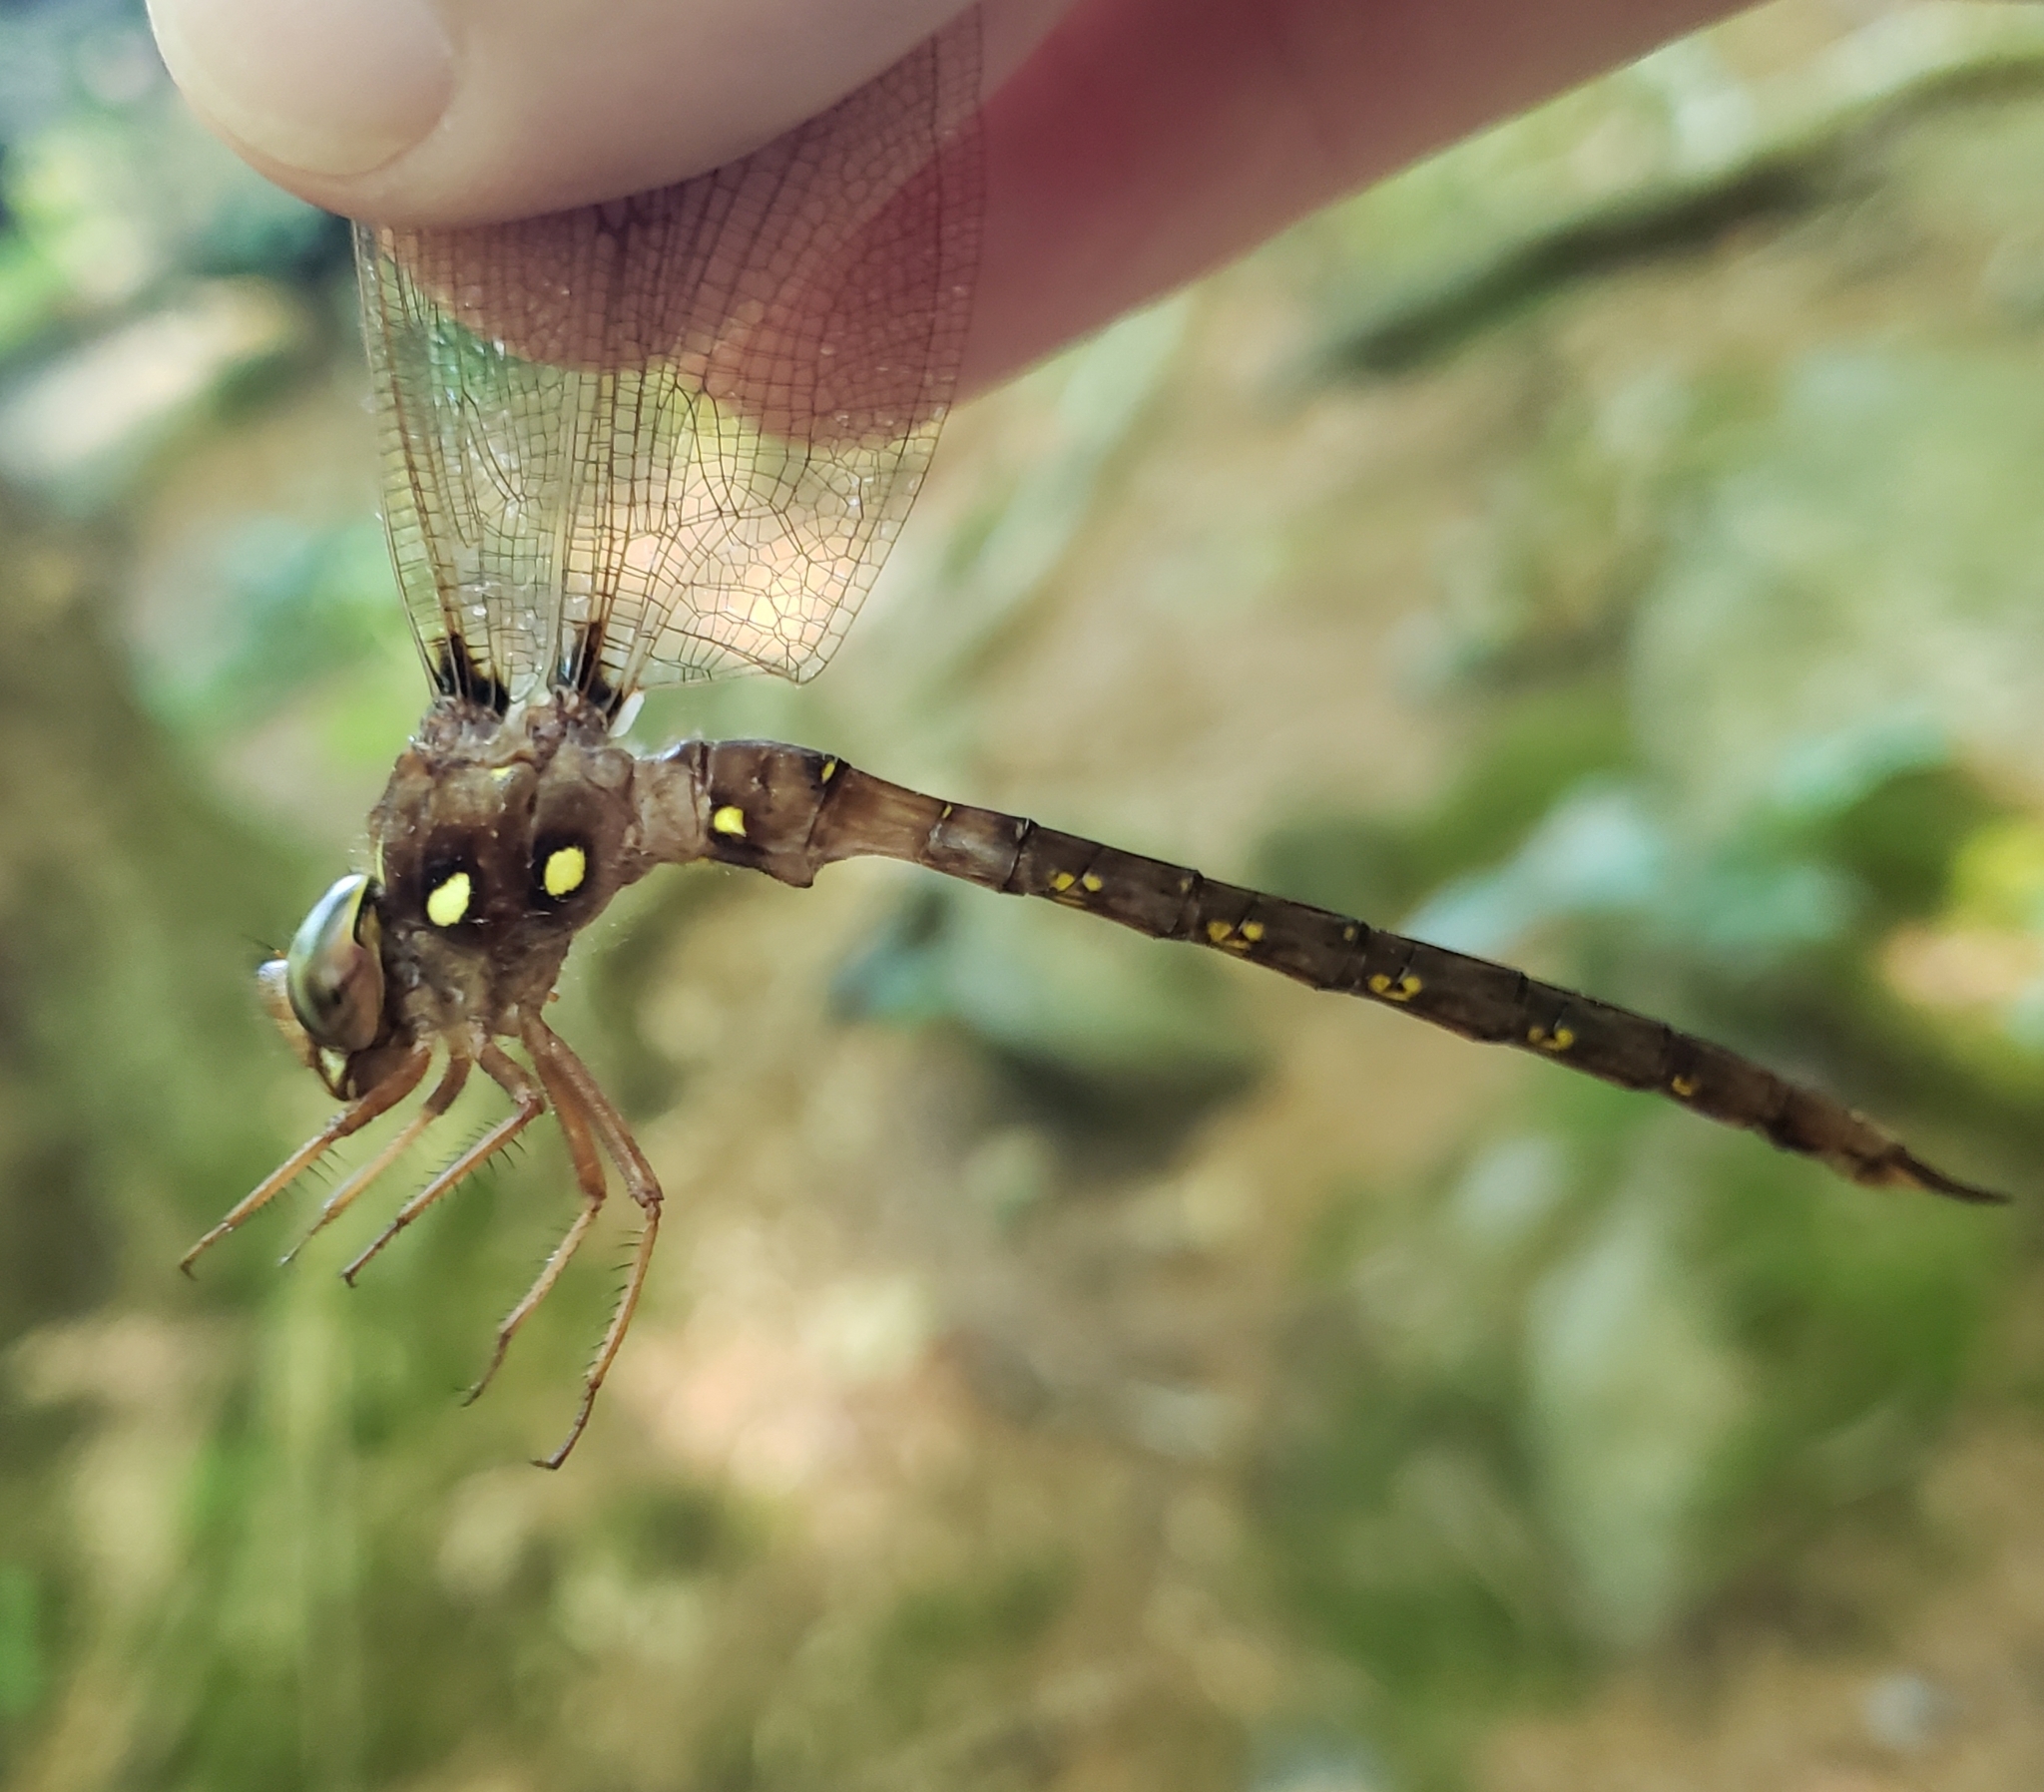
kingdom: Animalia
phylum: Arthropoda
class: Insecta
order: Odonata
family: Aeshnidae
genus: Boyeria
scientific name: Boyeria vinosa
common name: Fawn darner
